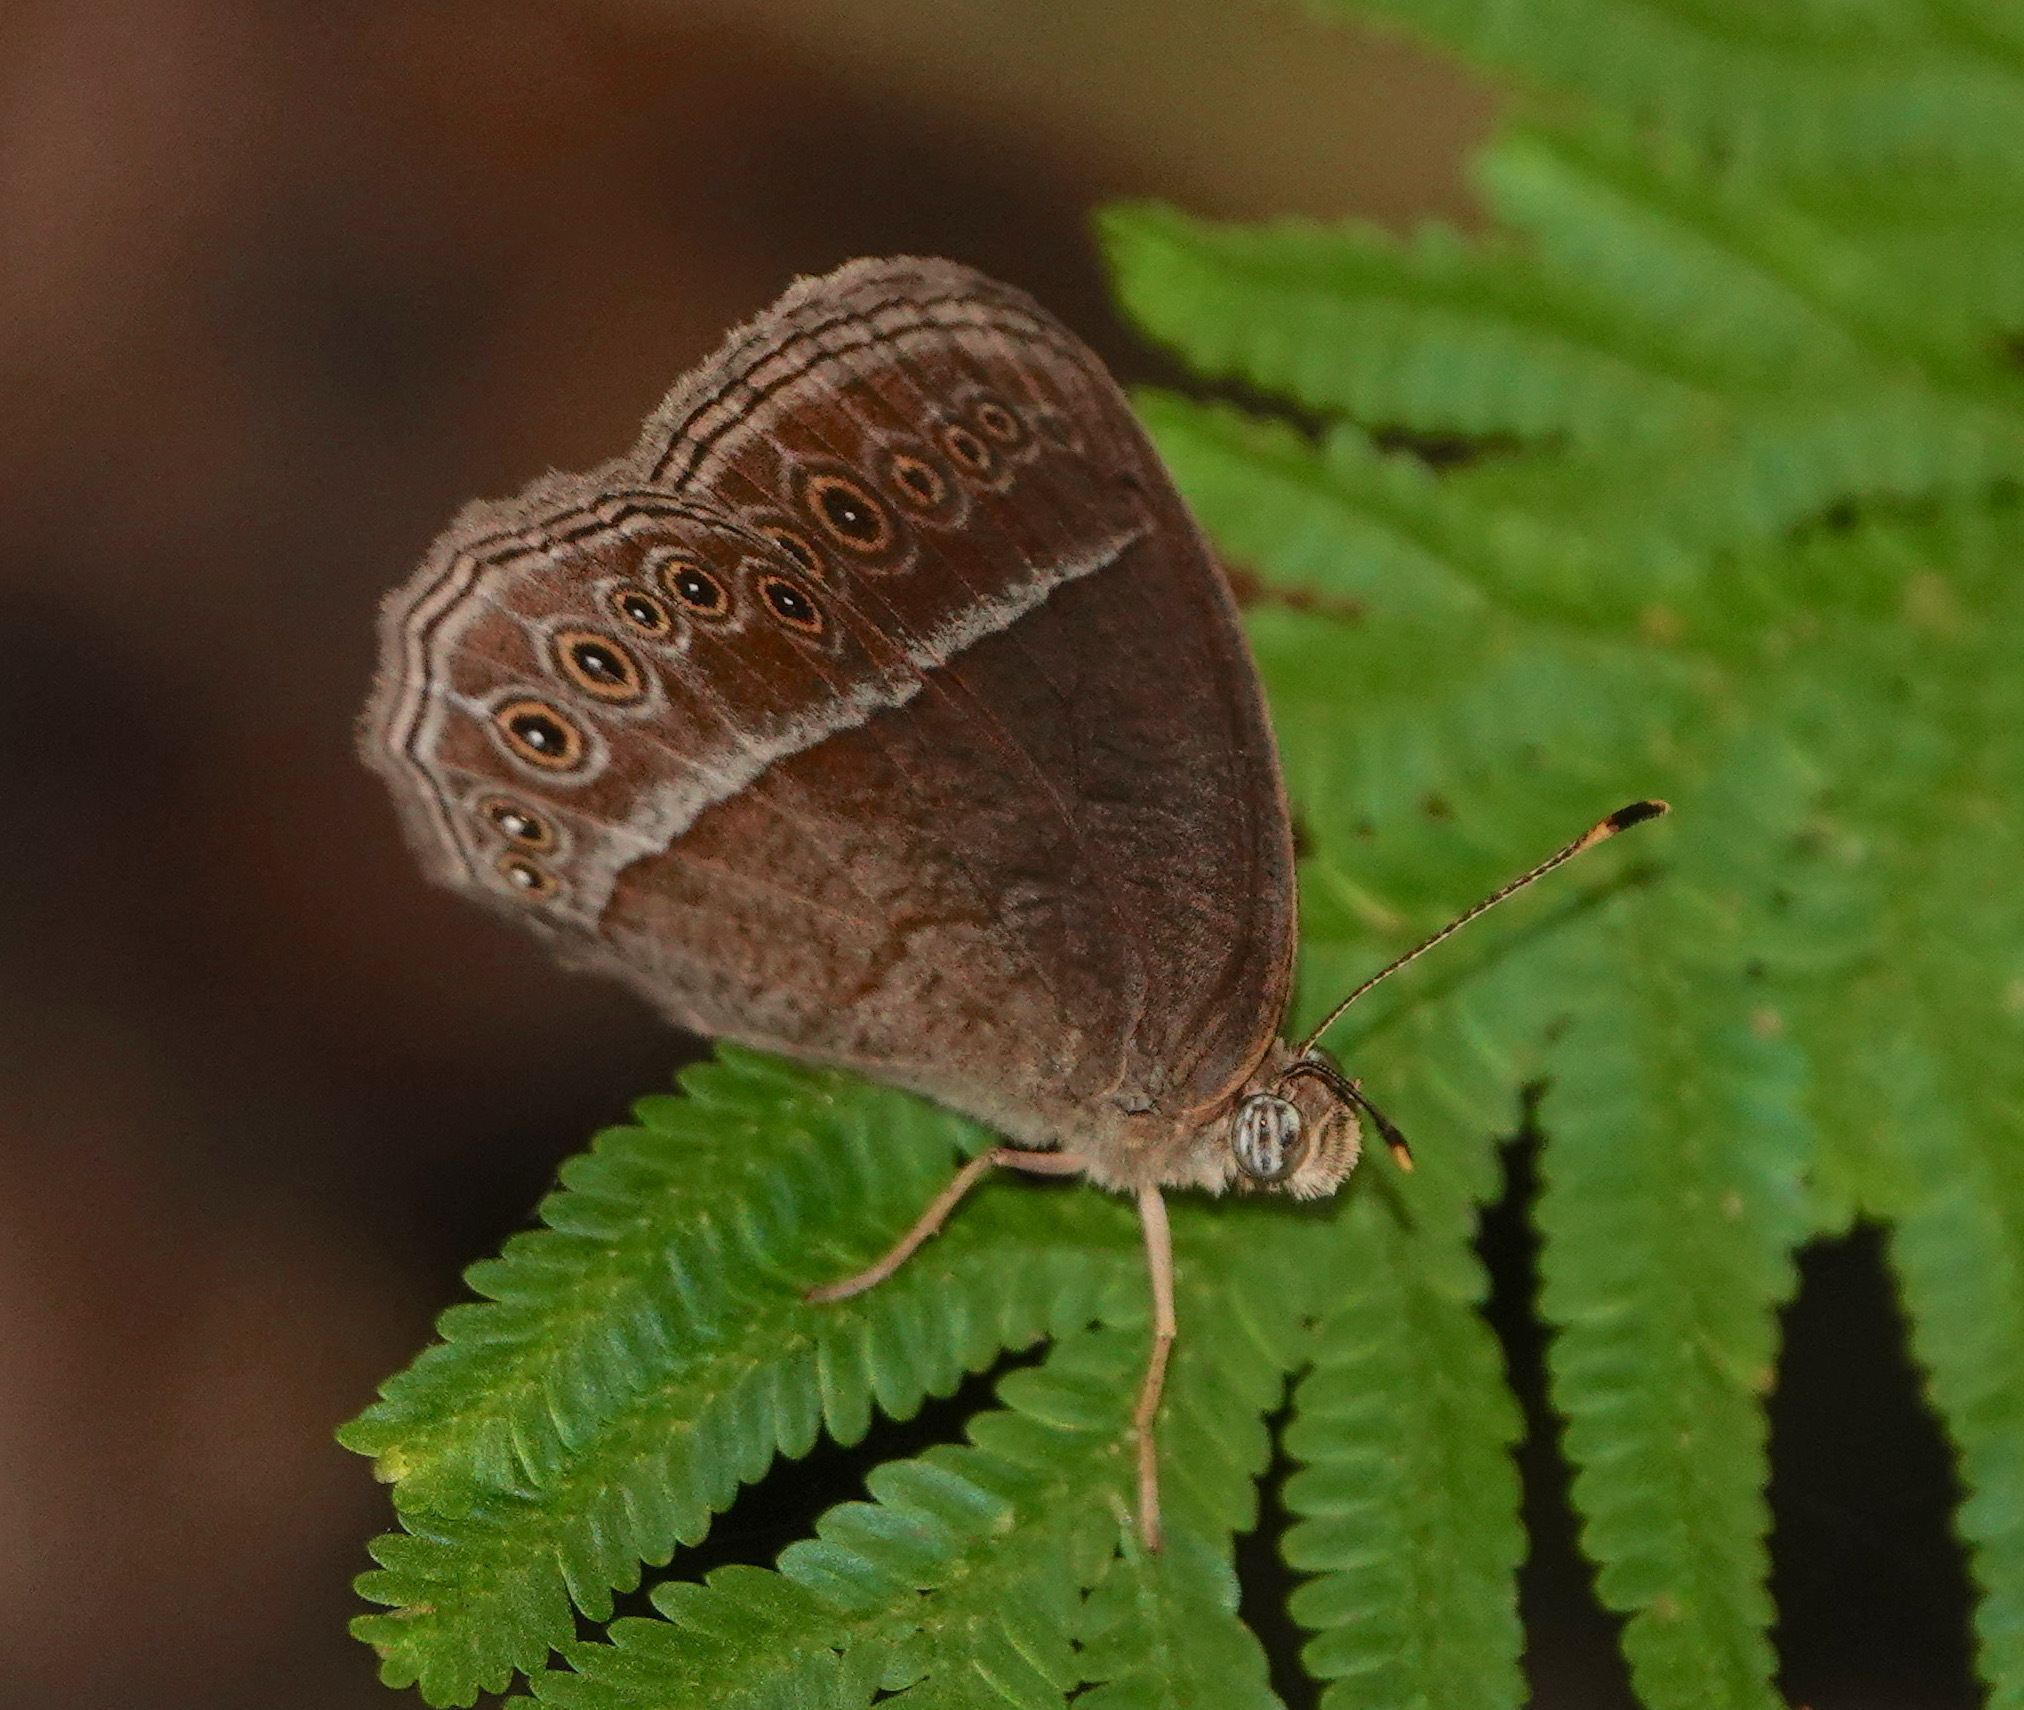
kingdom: Animalia
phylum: Arthropoda
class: Insecta
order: Lepidoptera
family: Nymphalidae
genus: Mycalesis
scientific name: Mycalesis Telinga janardana
